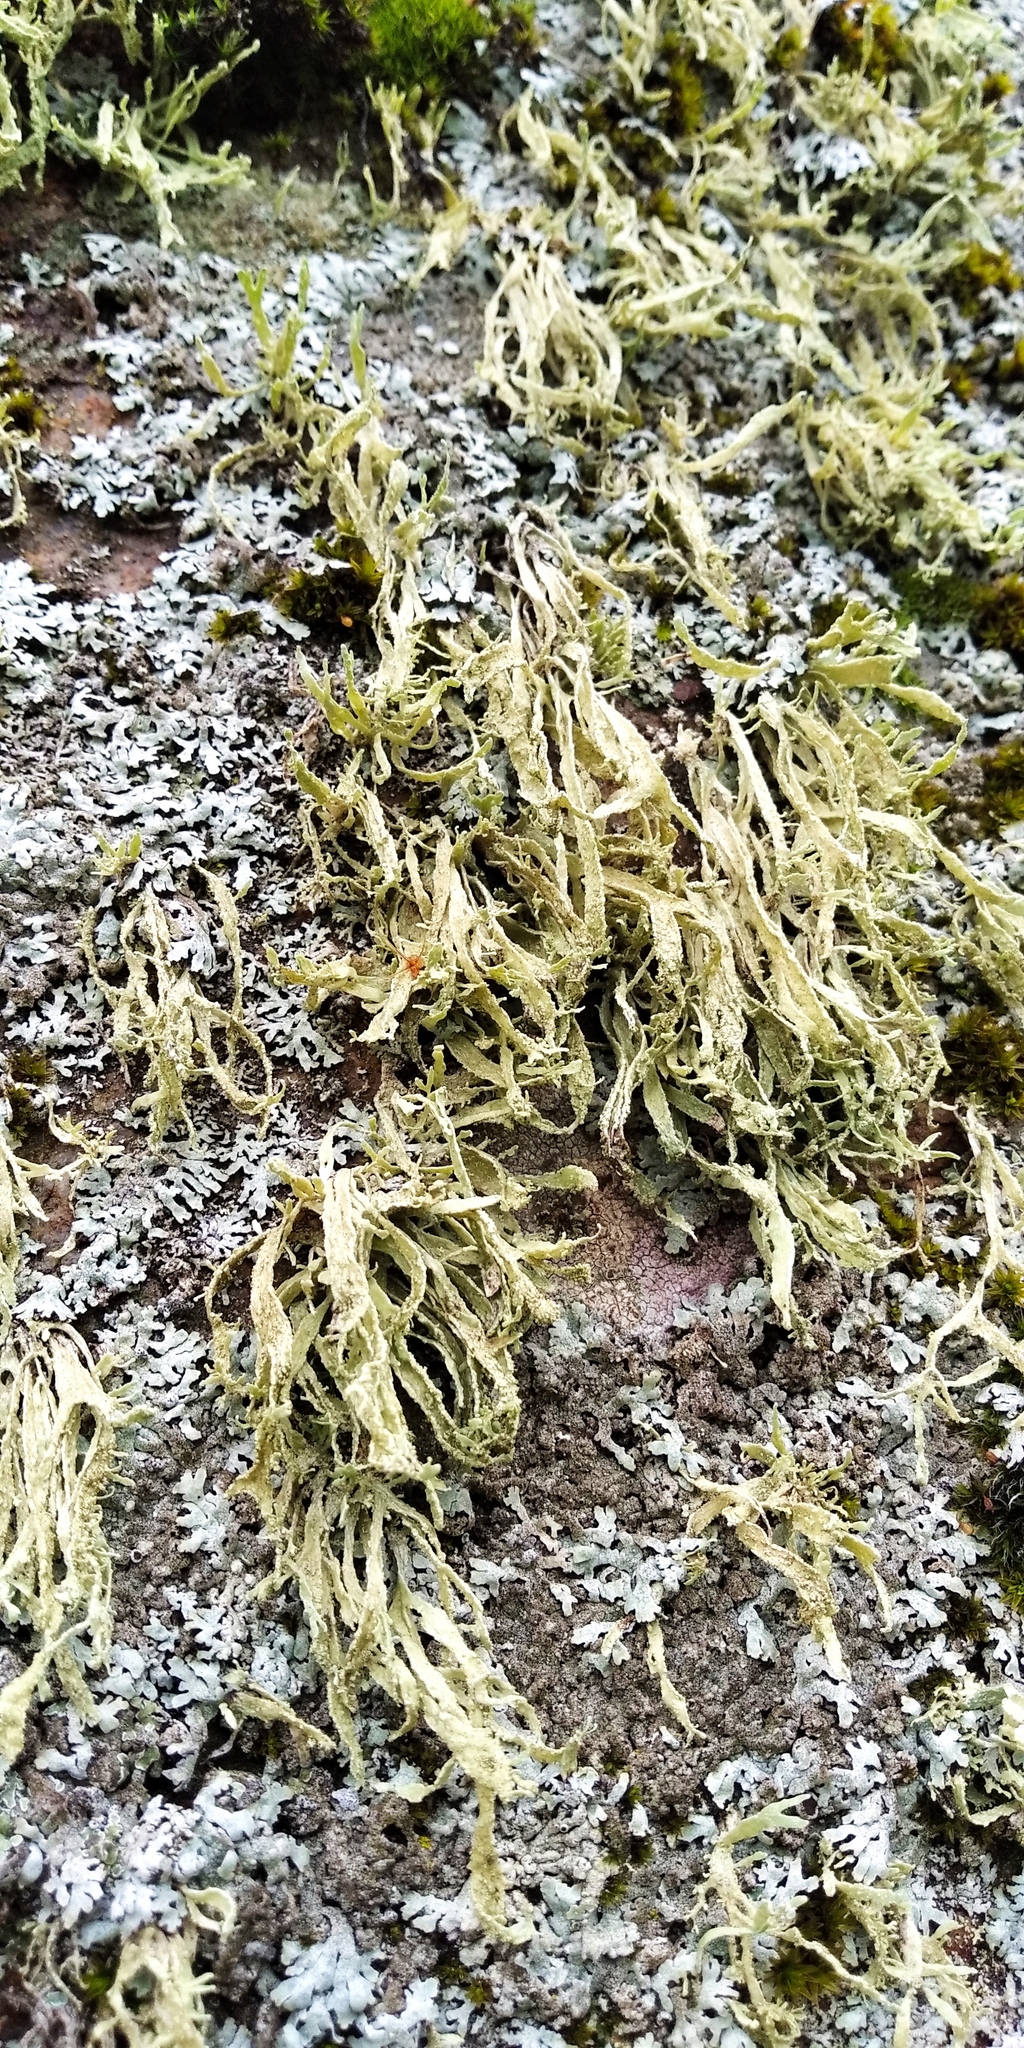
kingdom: Fungi
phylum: Ascomycota
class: Lecanoromycetes
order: Lecanorales
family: Ramalinaceae
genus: Ramalina
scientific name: Ramalina polymorpha
